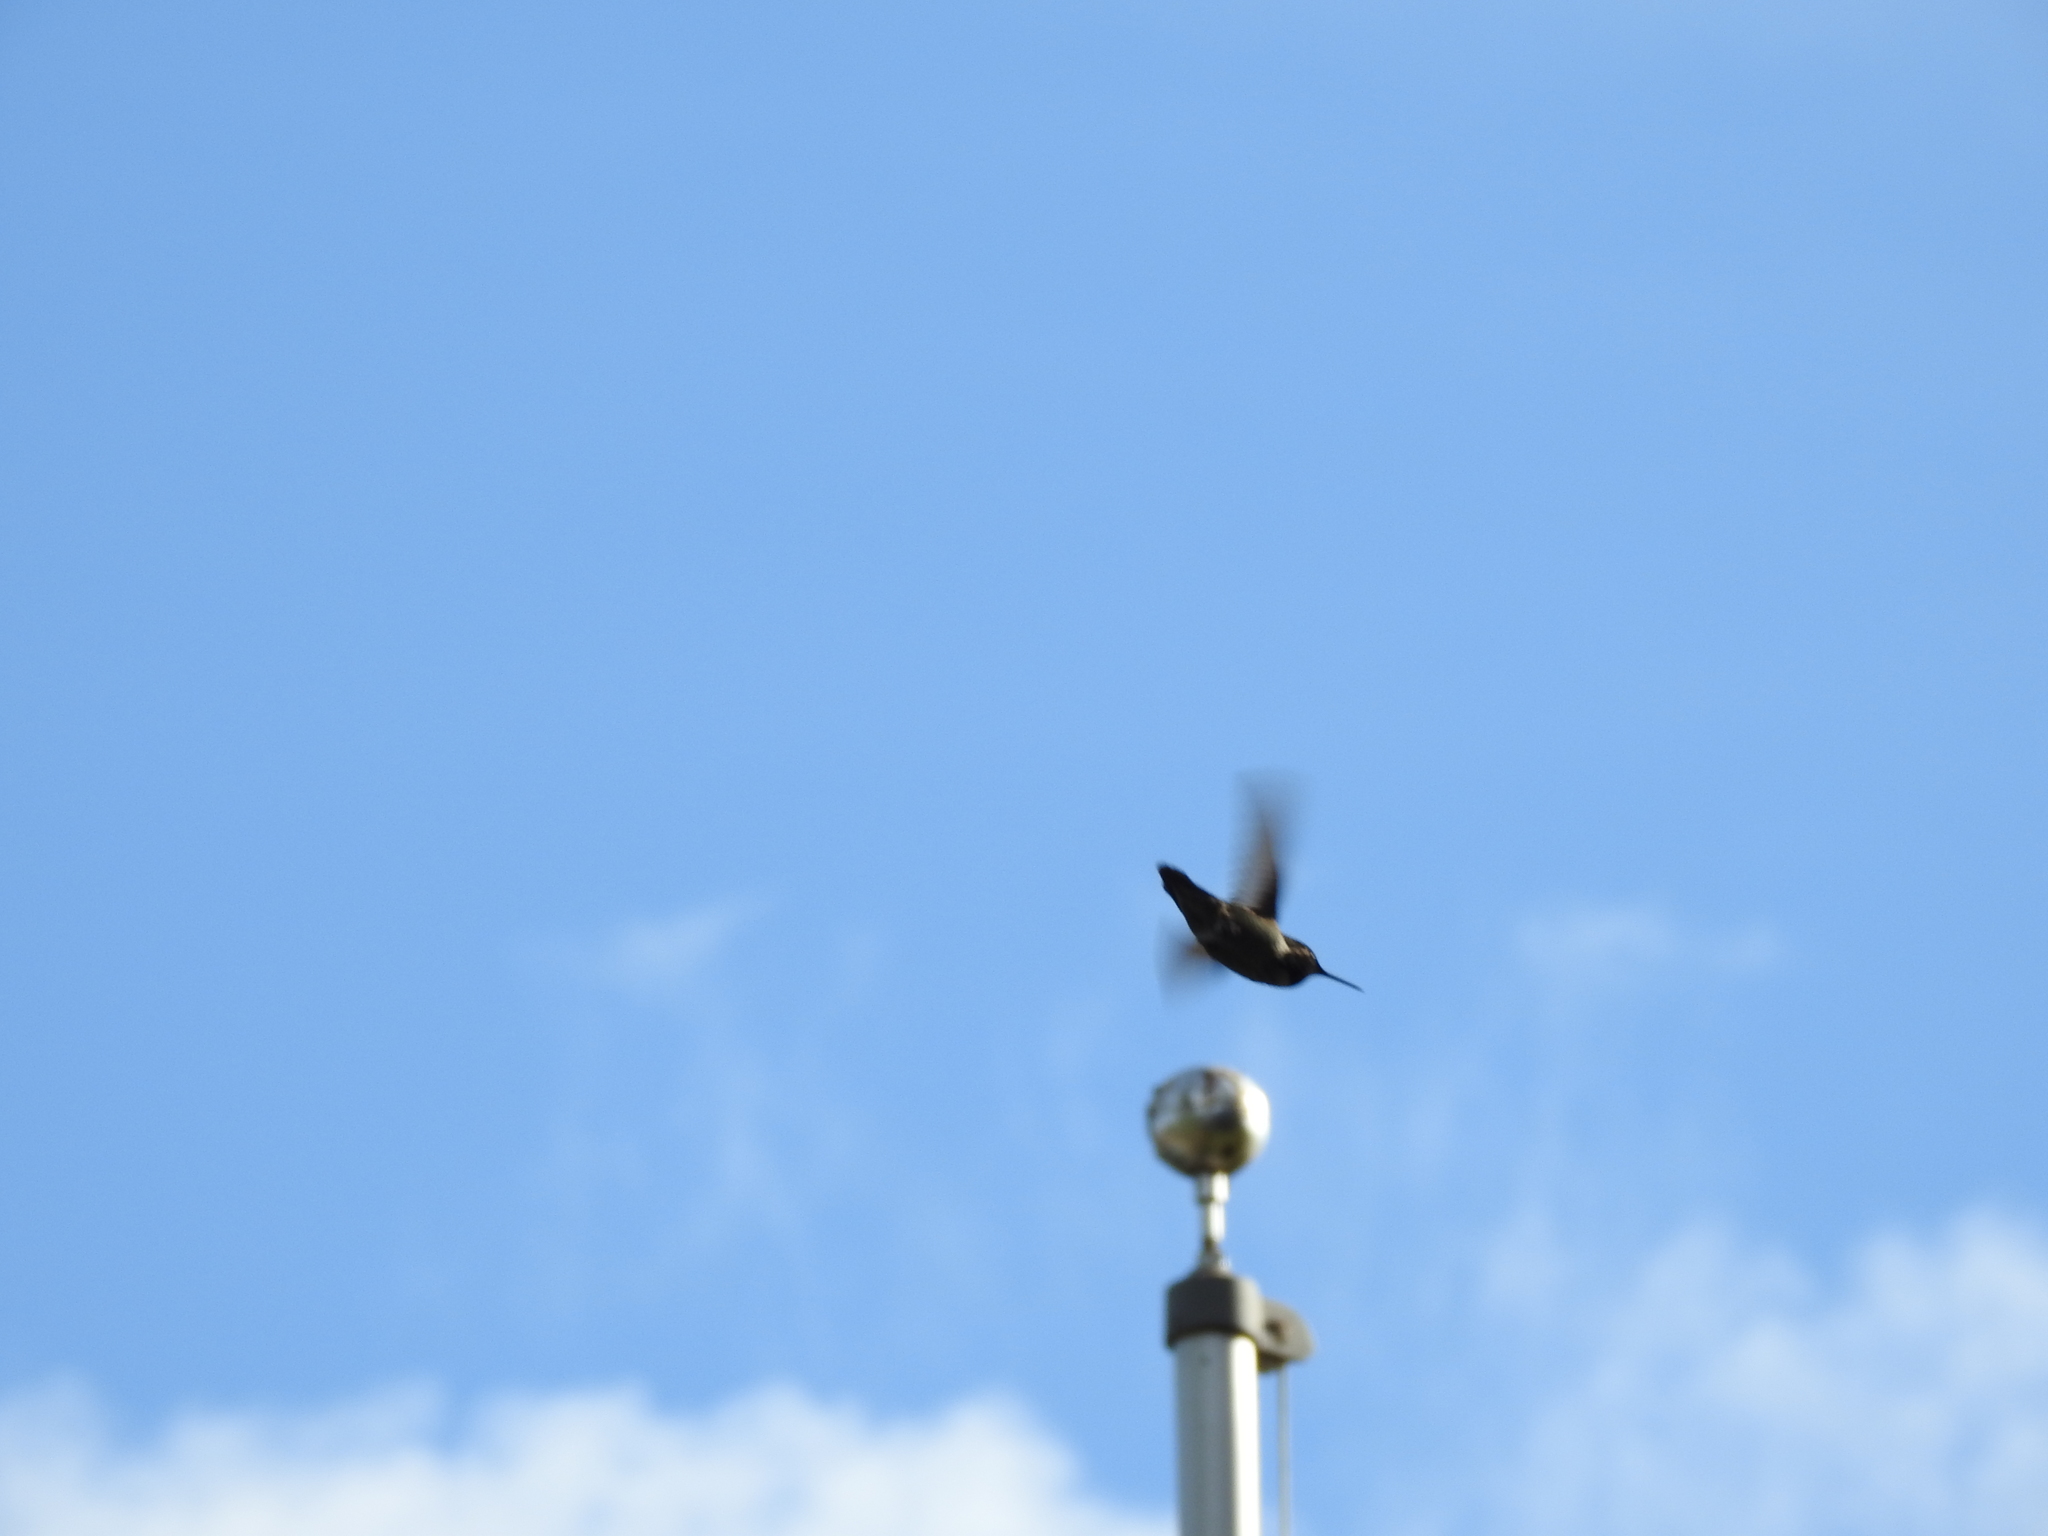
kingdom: Animalia
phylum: Chordata
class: Aves
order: Apodiformes
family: Trochilidae
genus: Calypte
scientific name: Calypte anna
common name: Anna's hummingbird
